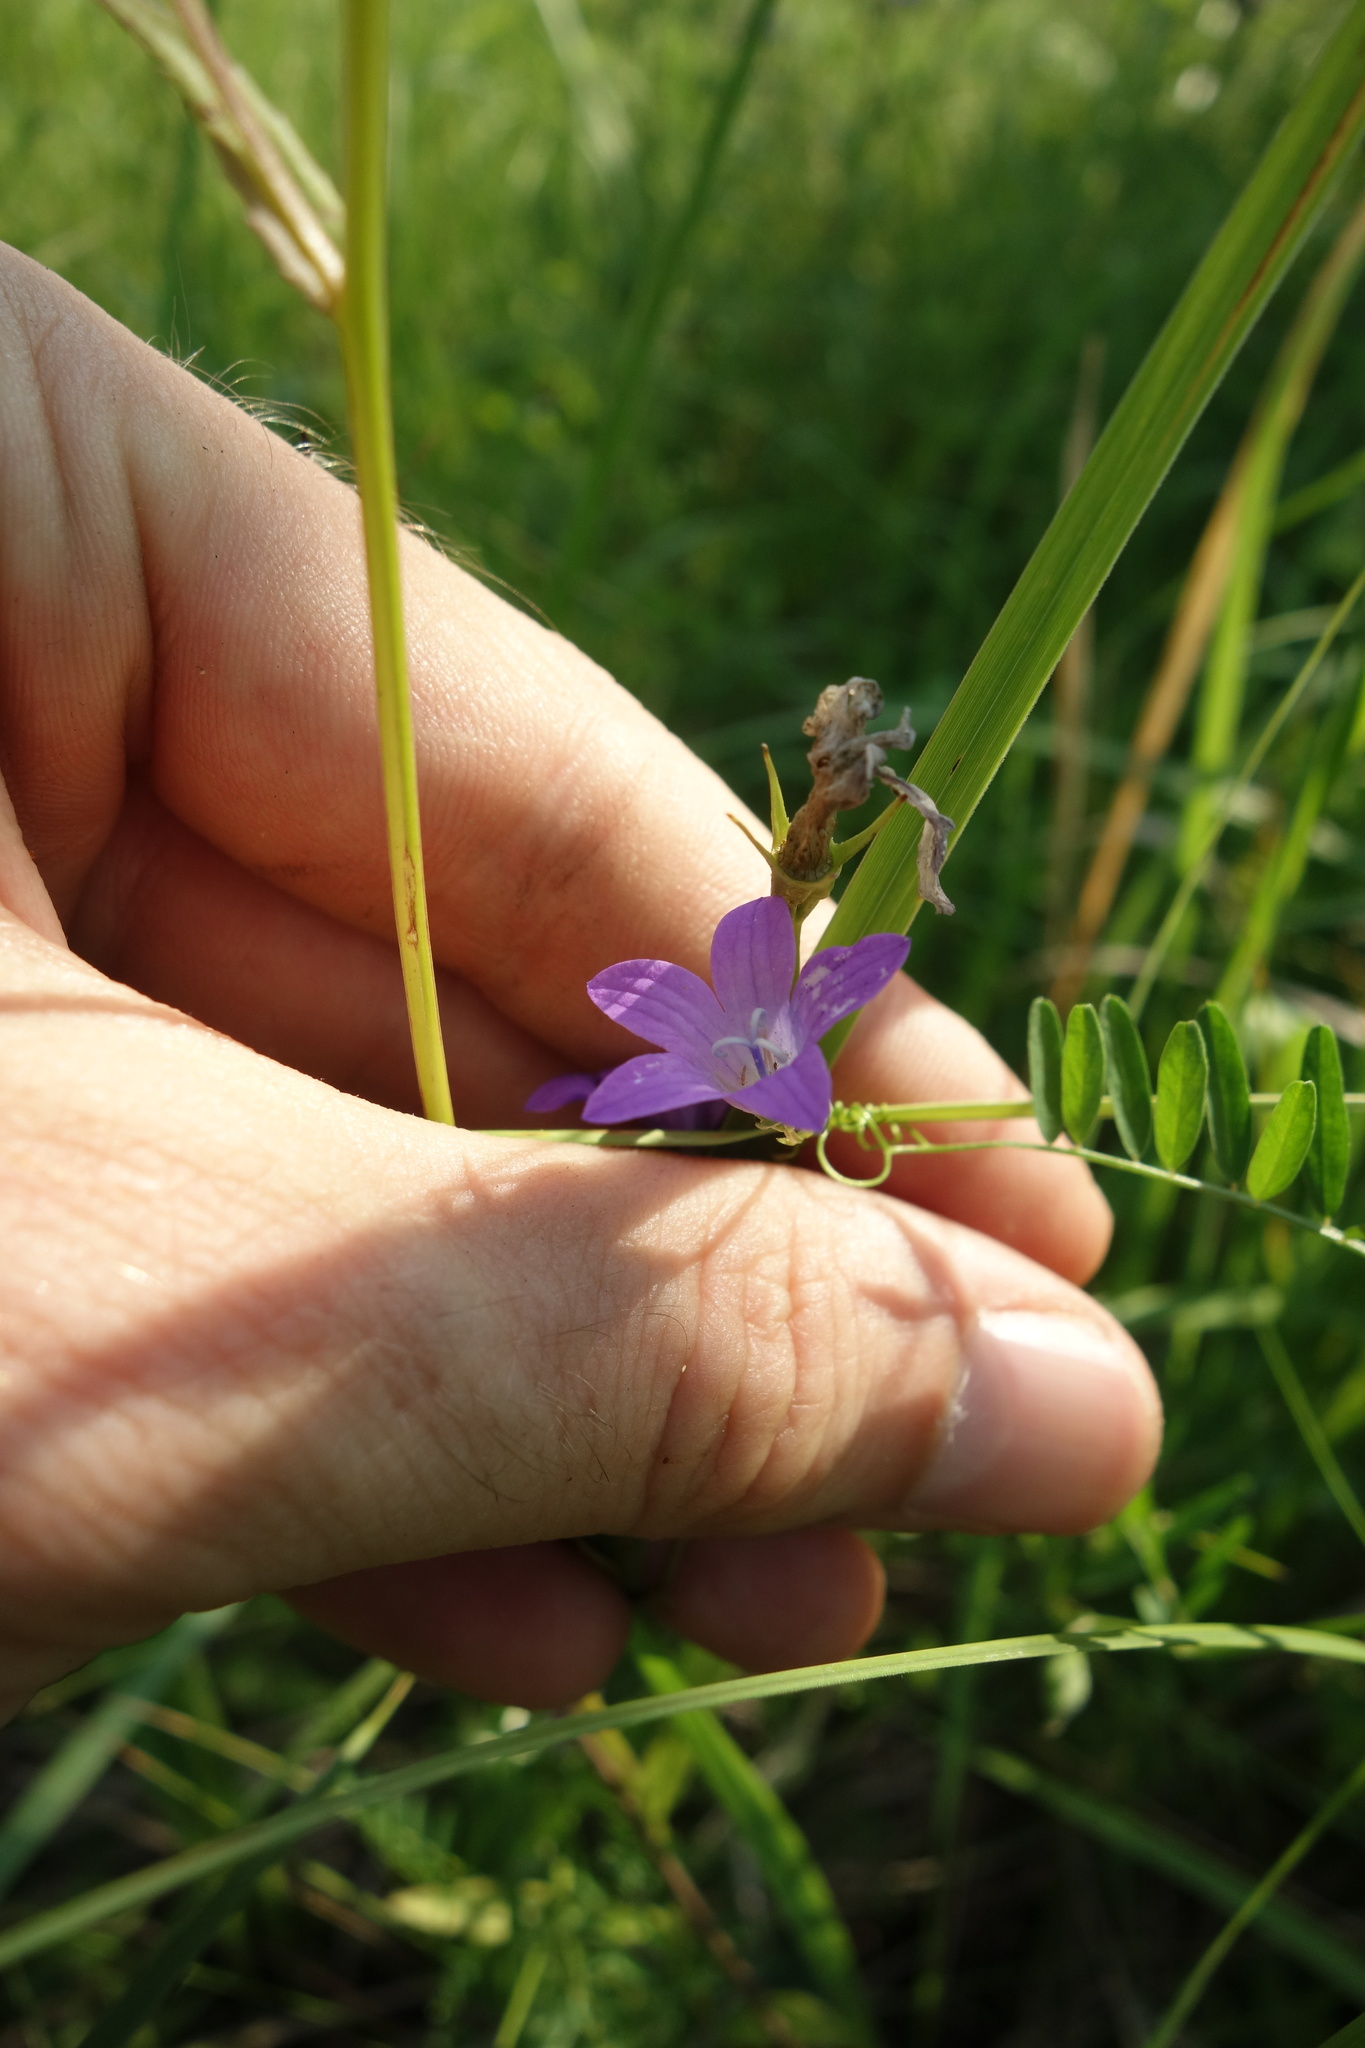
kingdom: Plantae
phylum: Tracheophyta
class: Magnoliopsida
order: Asterales
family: Campanulaceae
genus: Campanula
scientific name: Campanula patula
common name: Spreading bellflower
